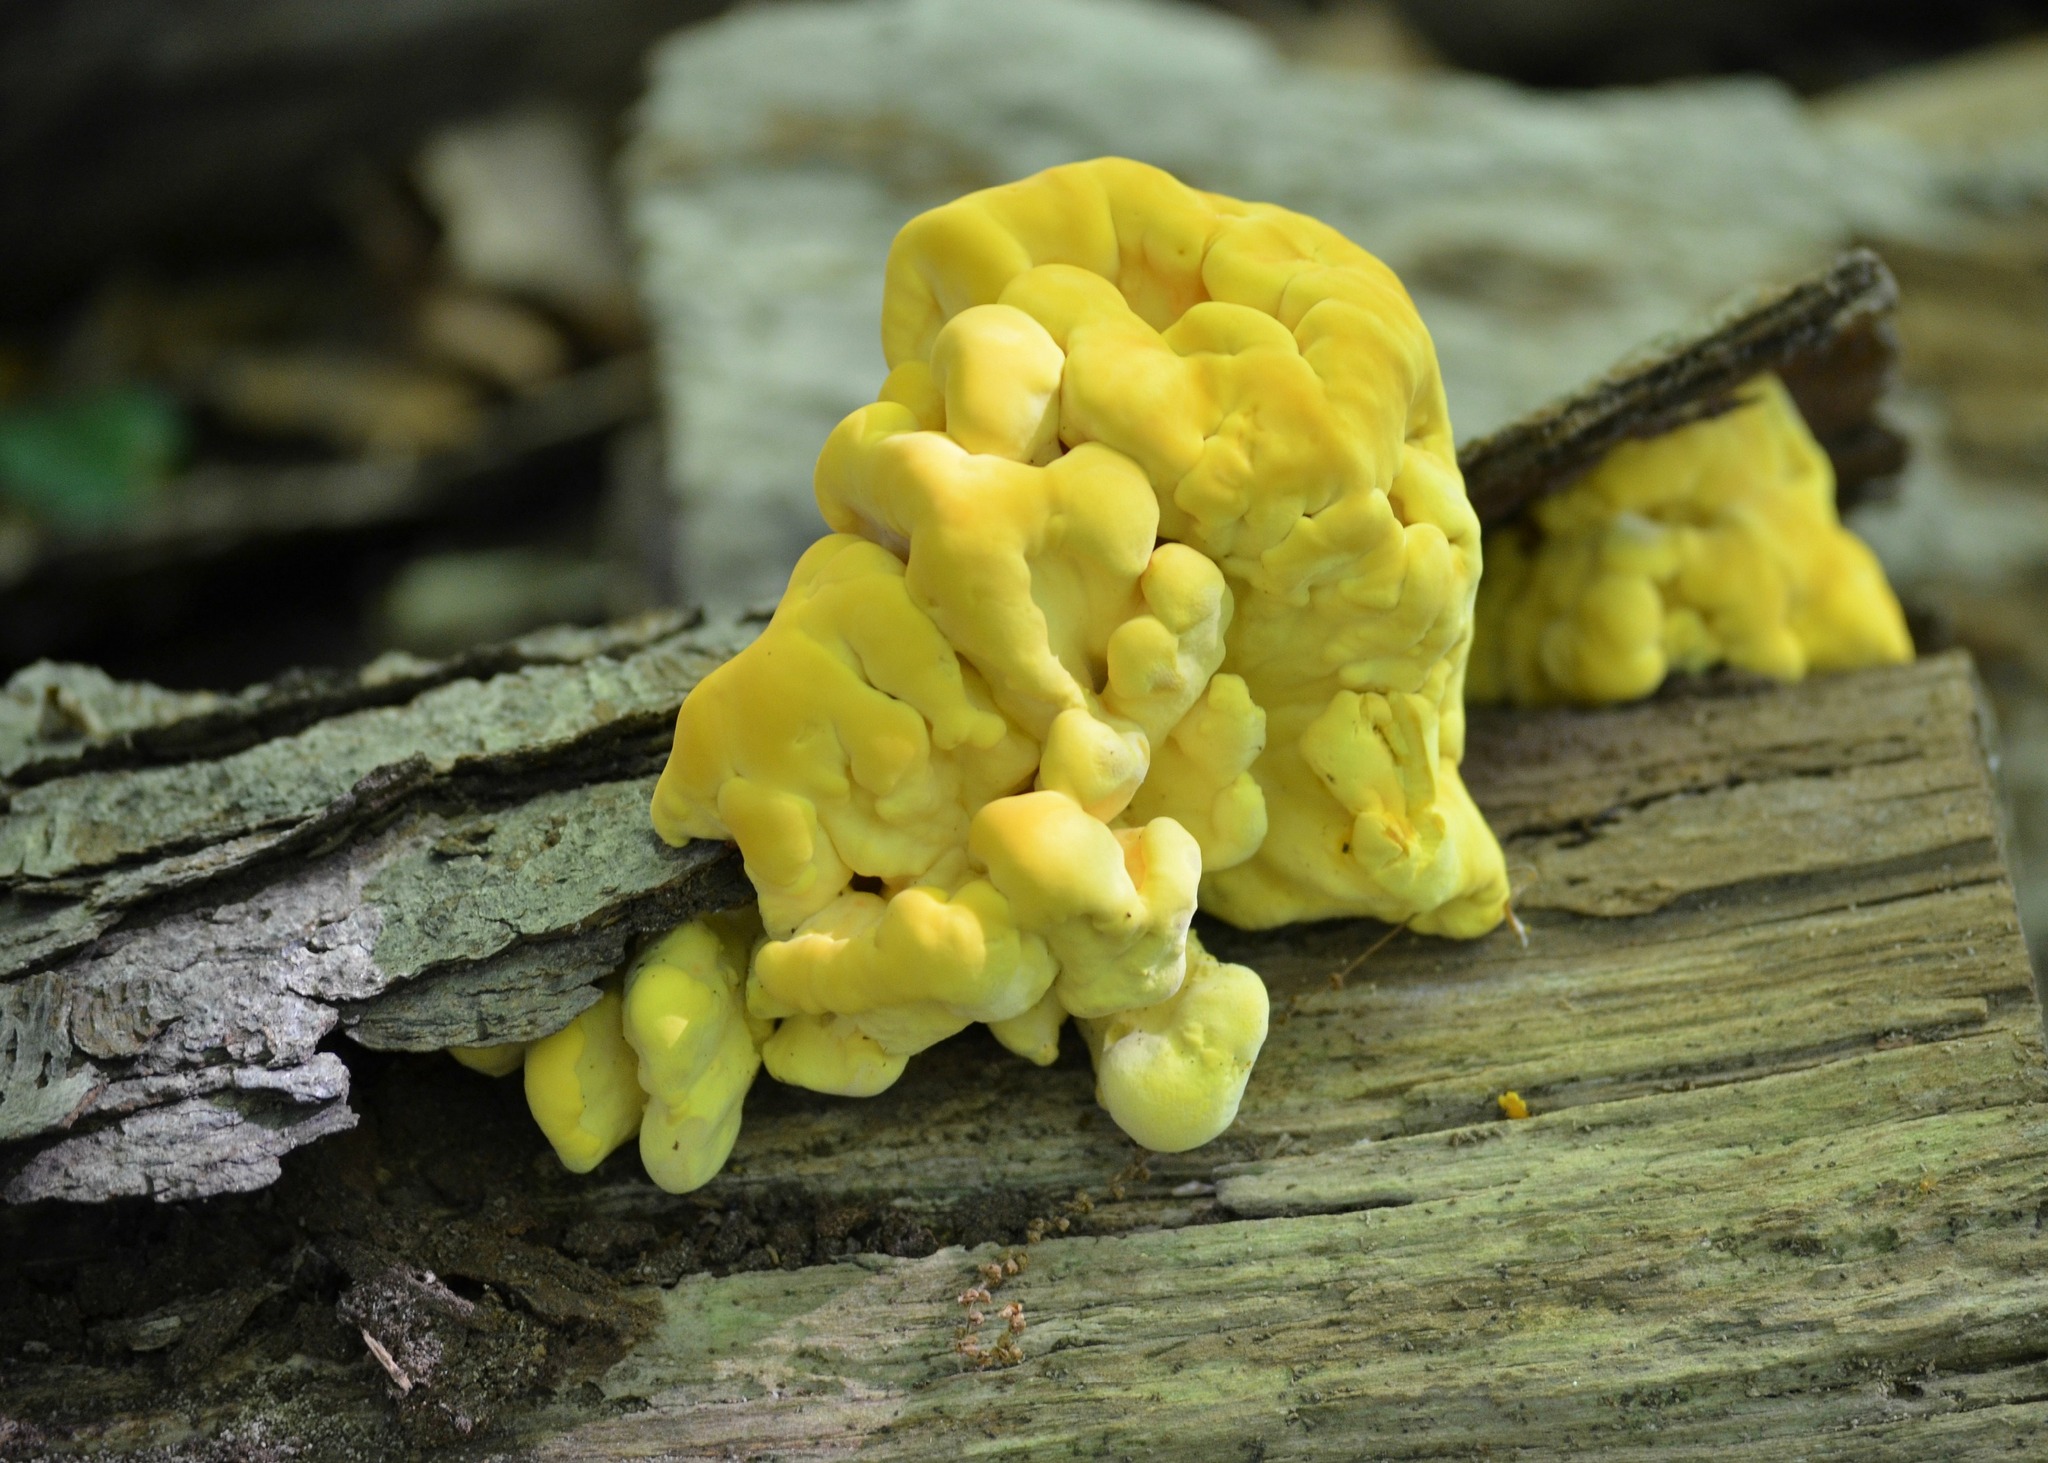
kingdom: Fungi
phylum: Basidiomycota
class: Agaricomycetes
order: Polyporales
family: Laetiporaceae
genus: Laetiporus
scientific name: Laetiporus sulphureus
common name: Chicken of the woods
